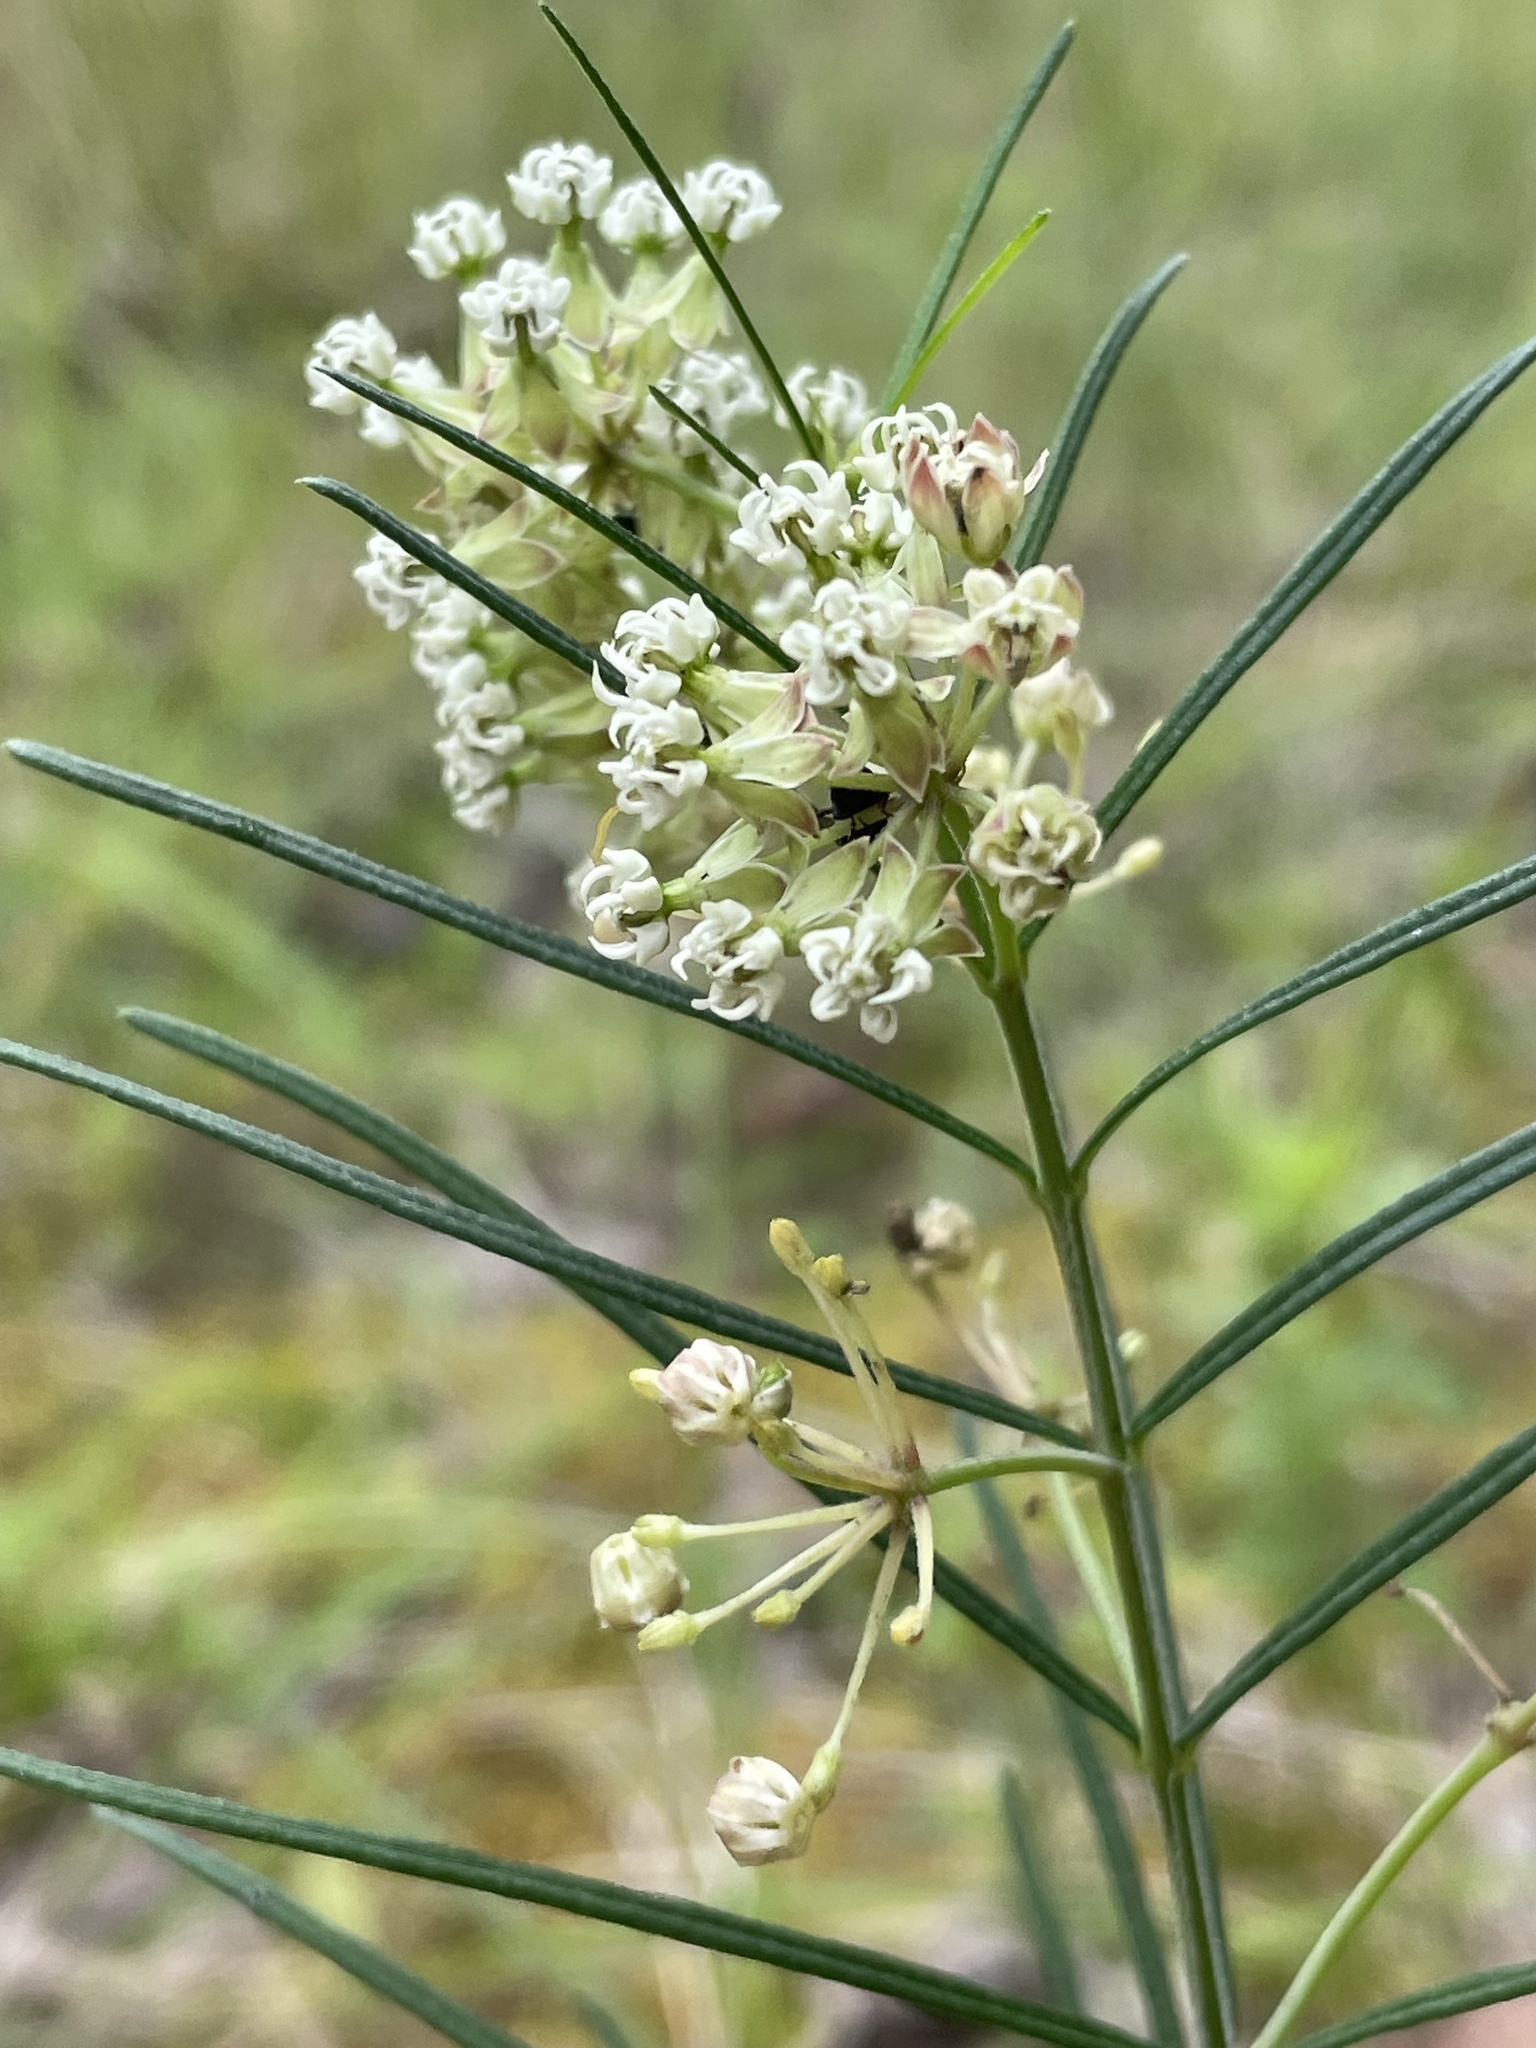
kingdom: Plantae
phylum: Tracheophyta
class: Magnoliopsida
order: Gentianales
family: Apocynaceae
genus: Asclepias
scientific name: Asclepias verticillata
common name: Eastern whorled milkweed
